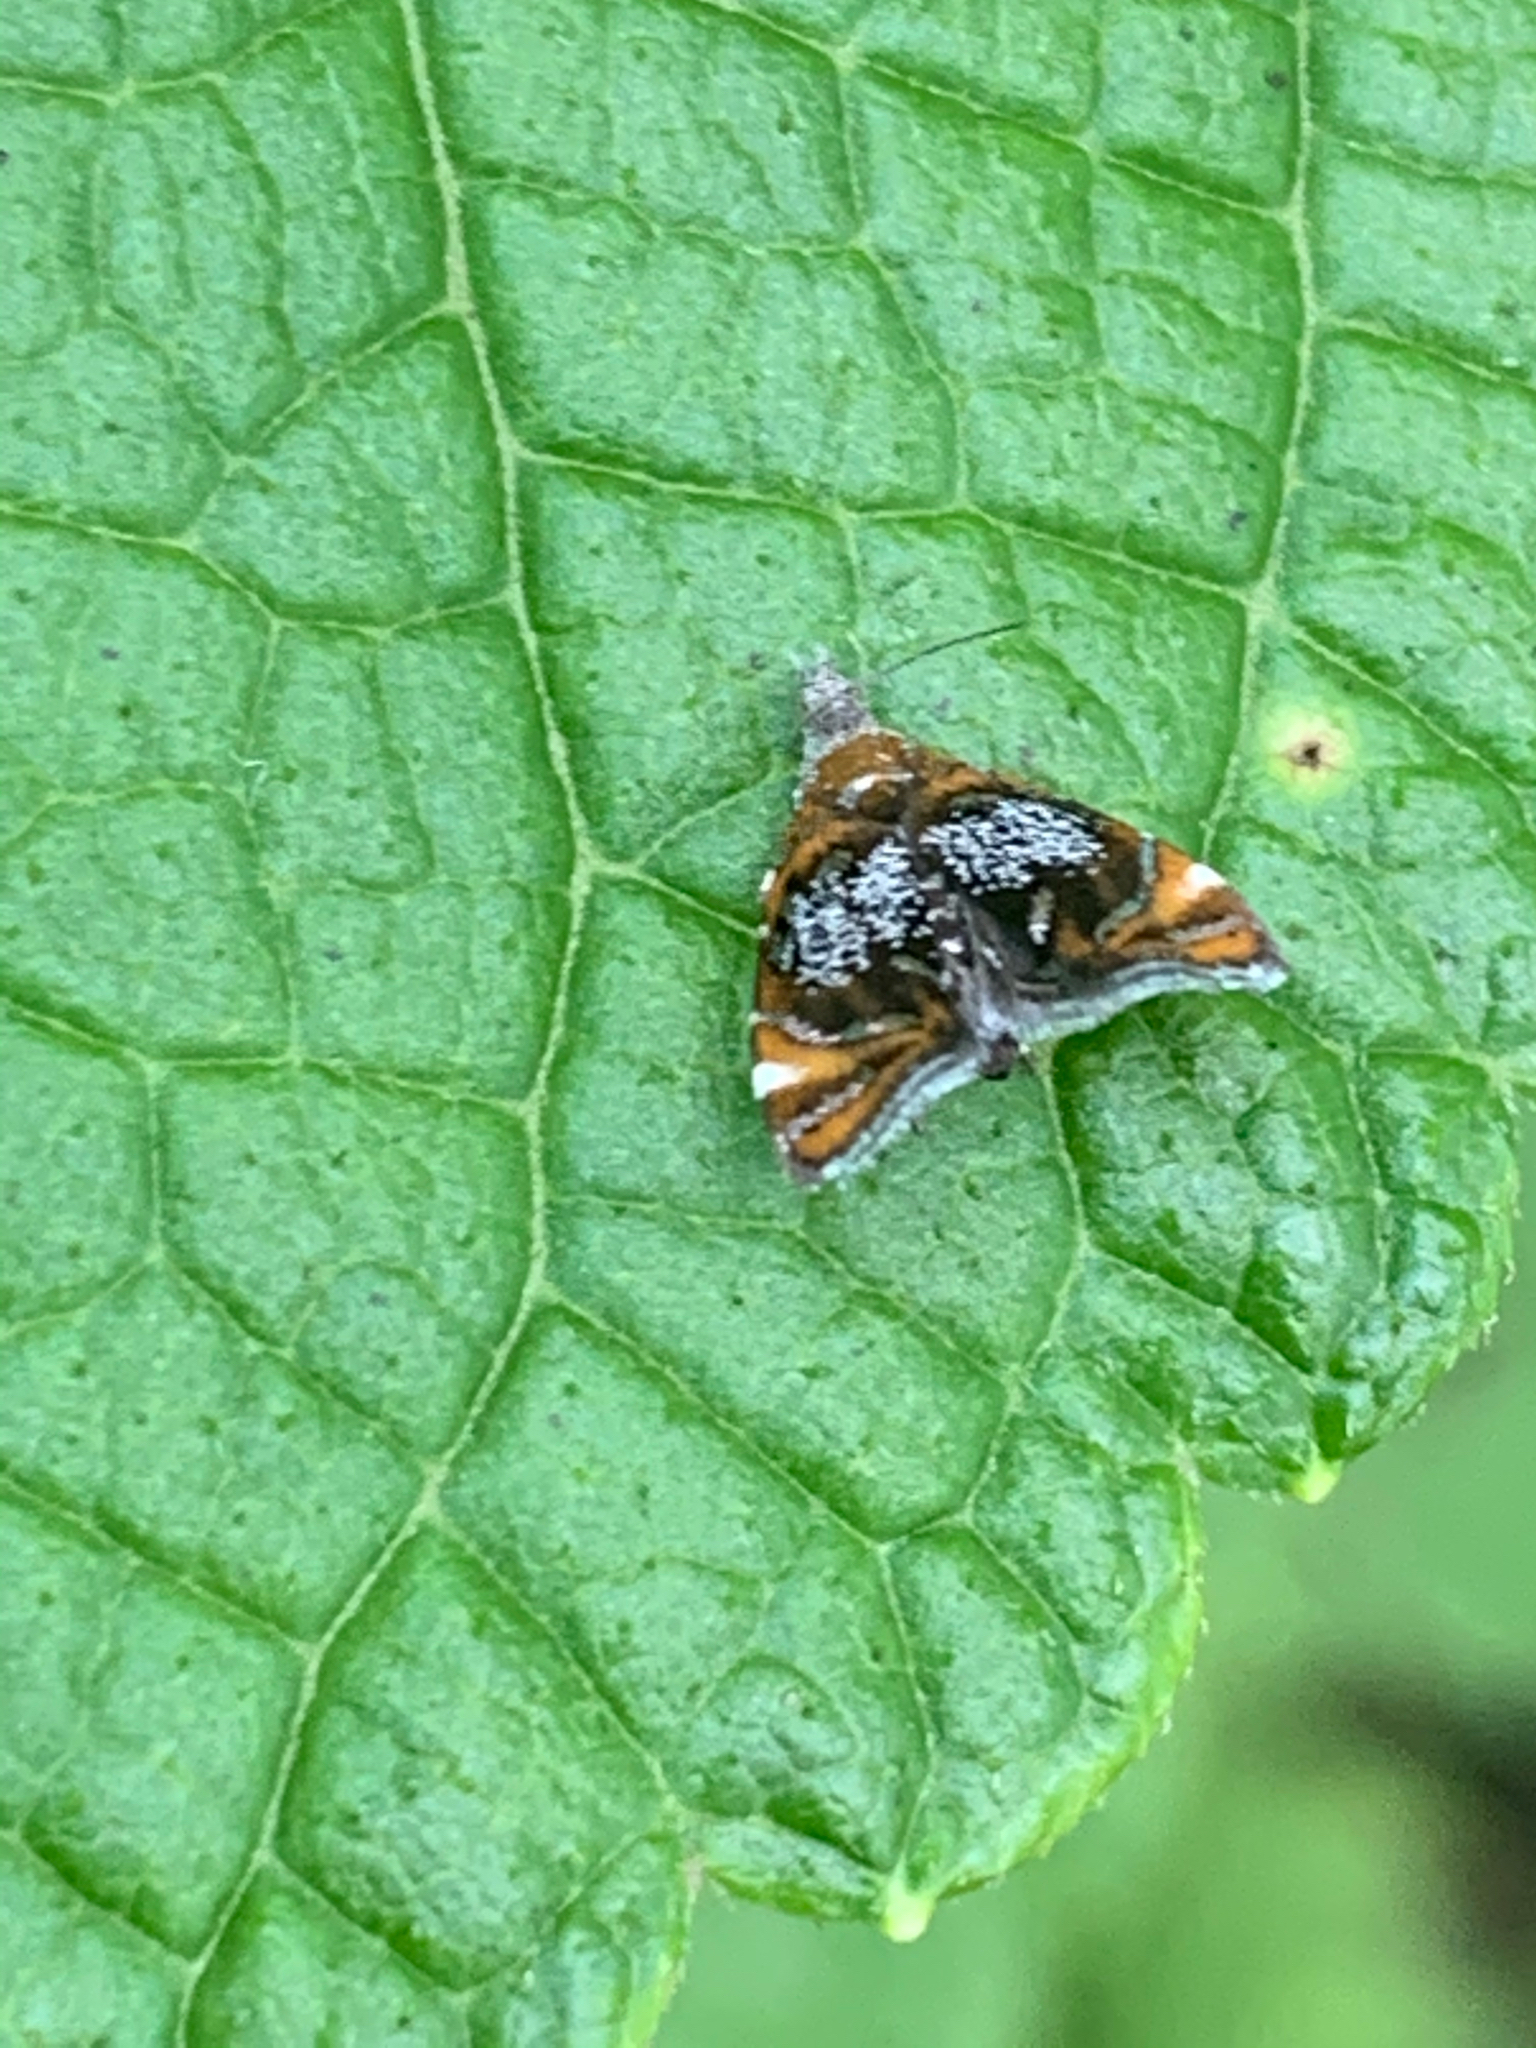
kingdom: Animalia
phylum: Arthropoda
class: Insecta
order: Lepidoptera
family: Choreutidae
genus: Prochoreutis
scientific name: Prochoreutis inflatella
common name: Skullcap skeletonizer moth
